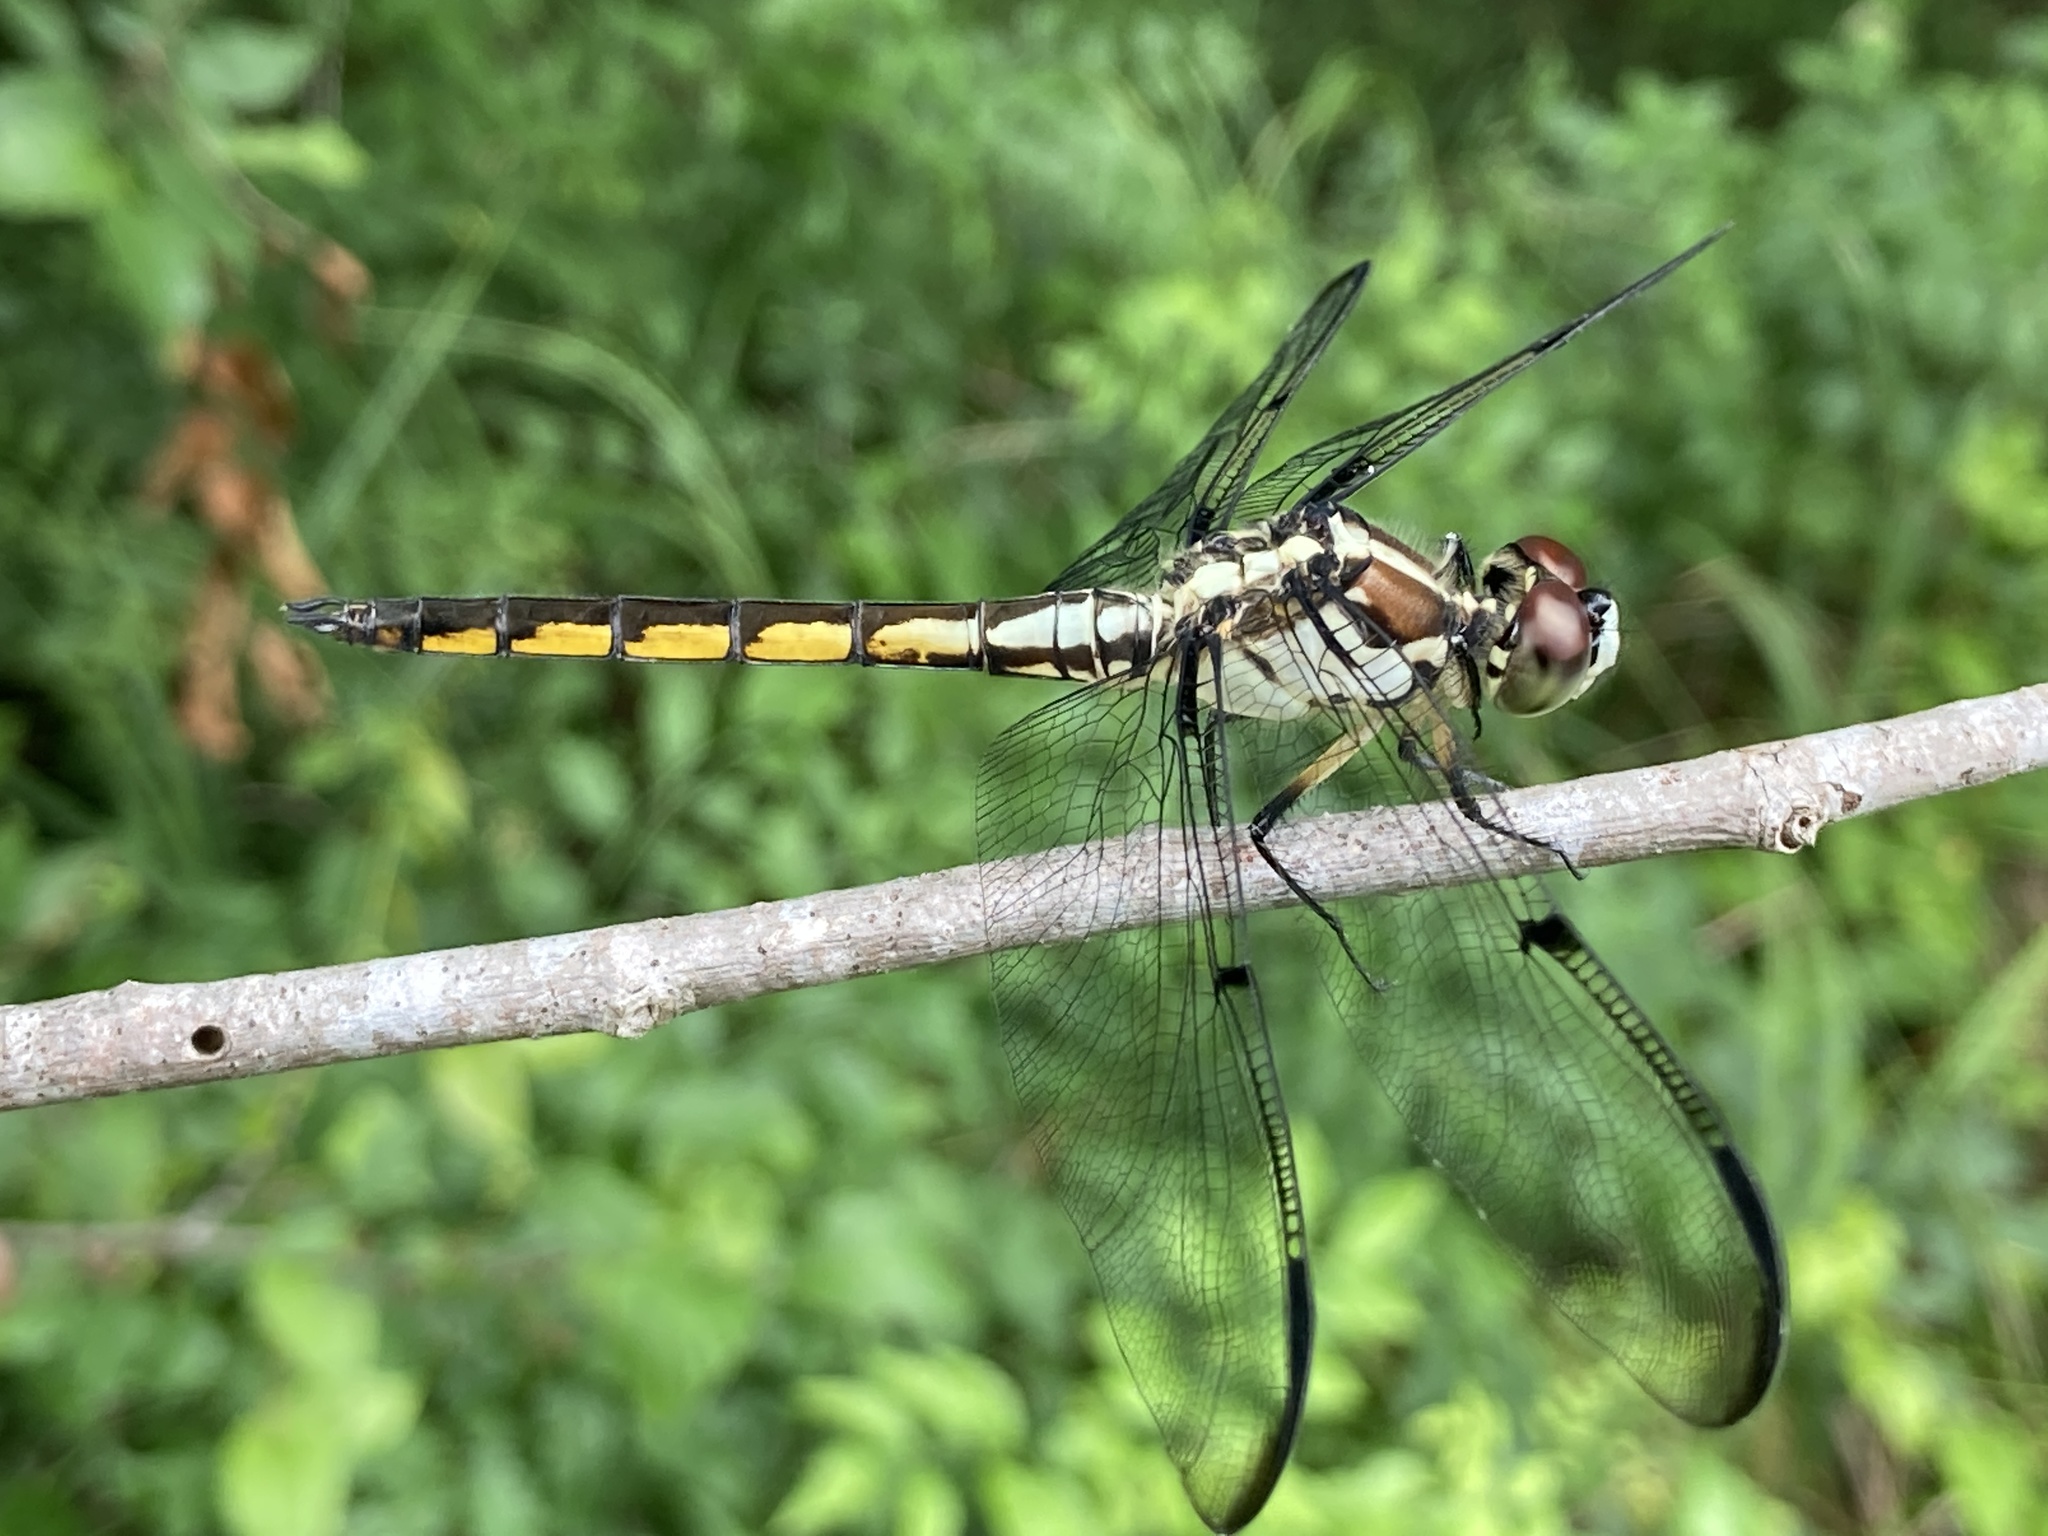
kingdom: Animalia
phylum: Arthropoda
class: Insecta
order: Odonata
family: Libellulidae
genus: Libellula
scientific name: Libellula vibrans
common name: Great blue skimmer
